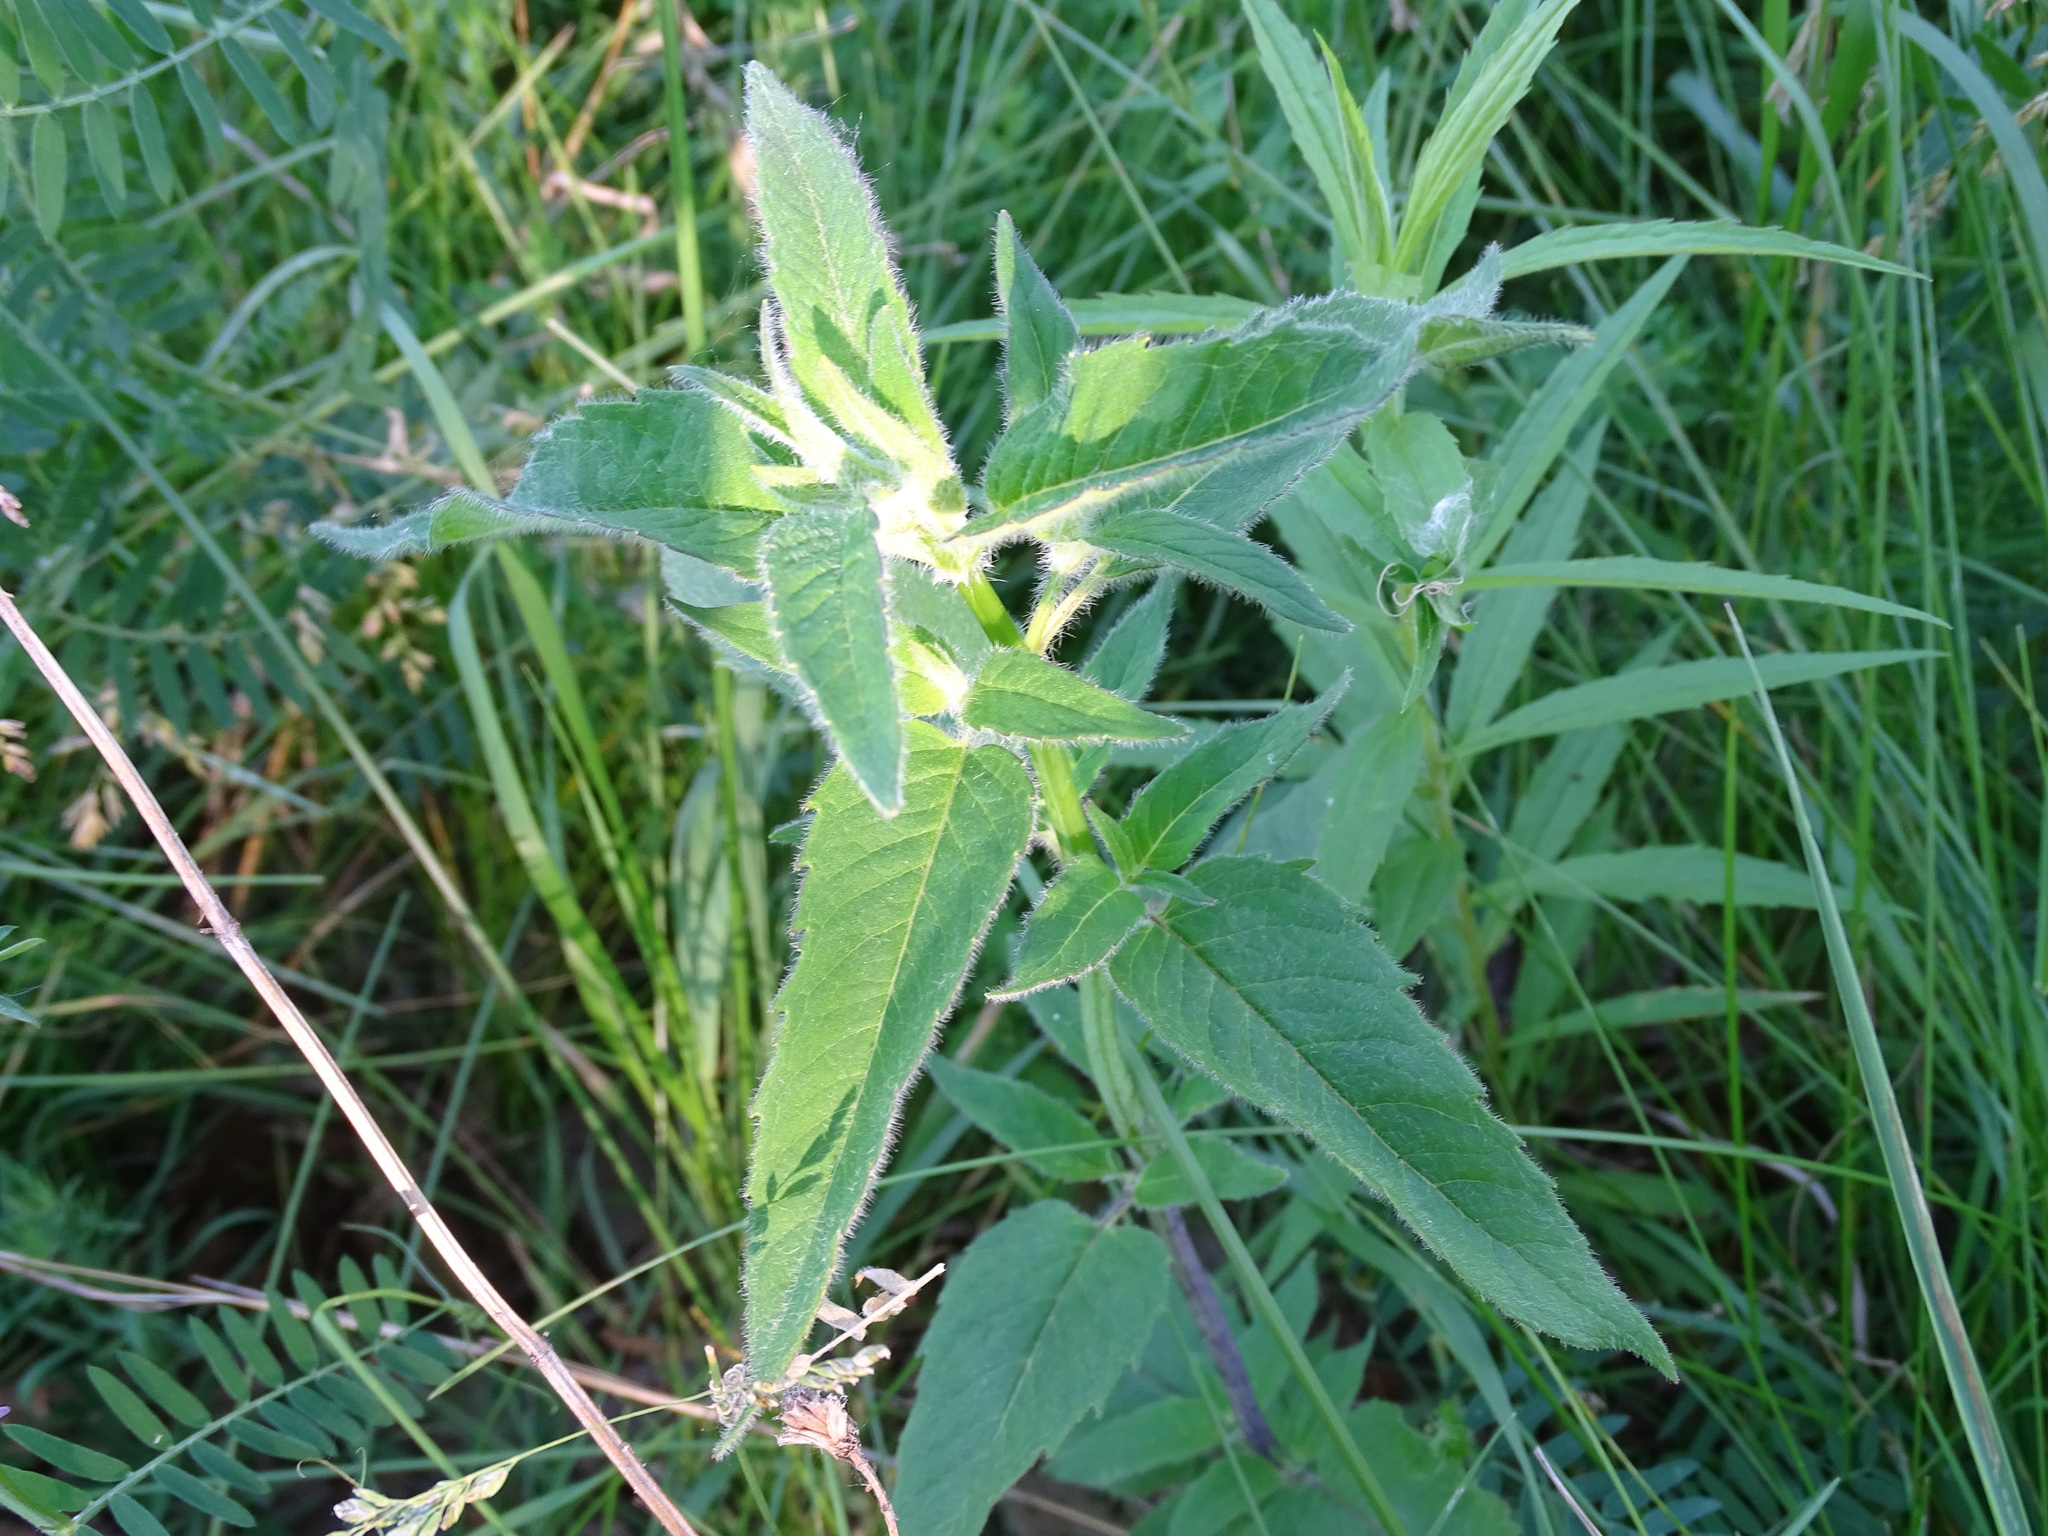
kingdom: Plantae
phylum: Tracheophyta
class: Magnoliopsida
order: Lamiales
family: Lamiaceae
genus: Monarda
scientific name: Monarda fistulosa
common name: Purple beebalm
